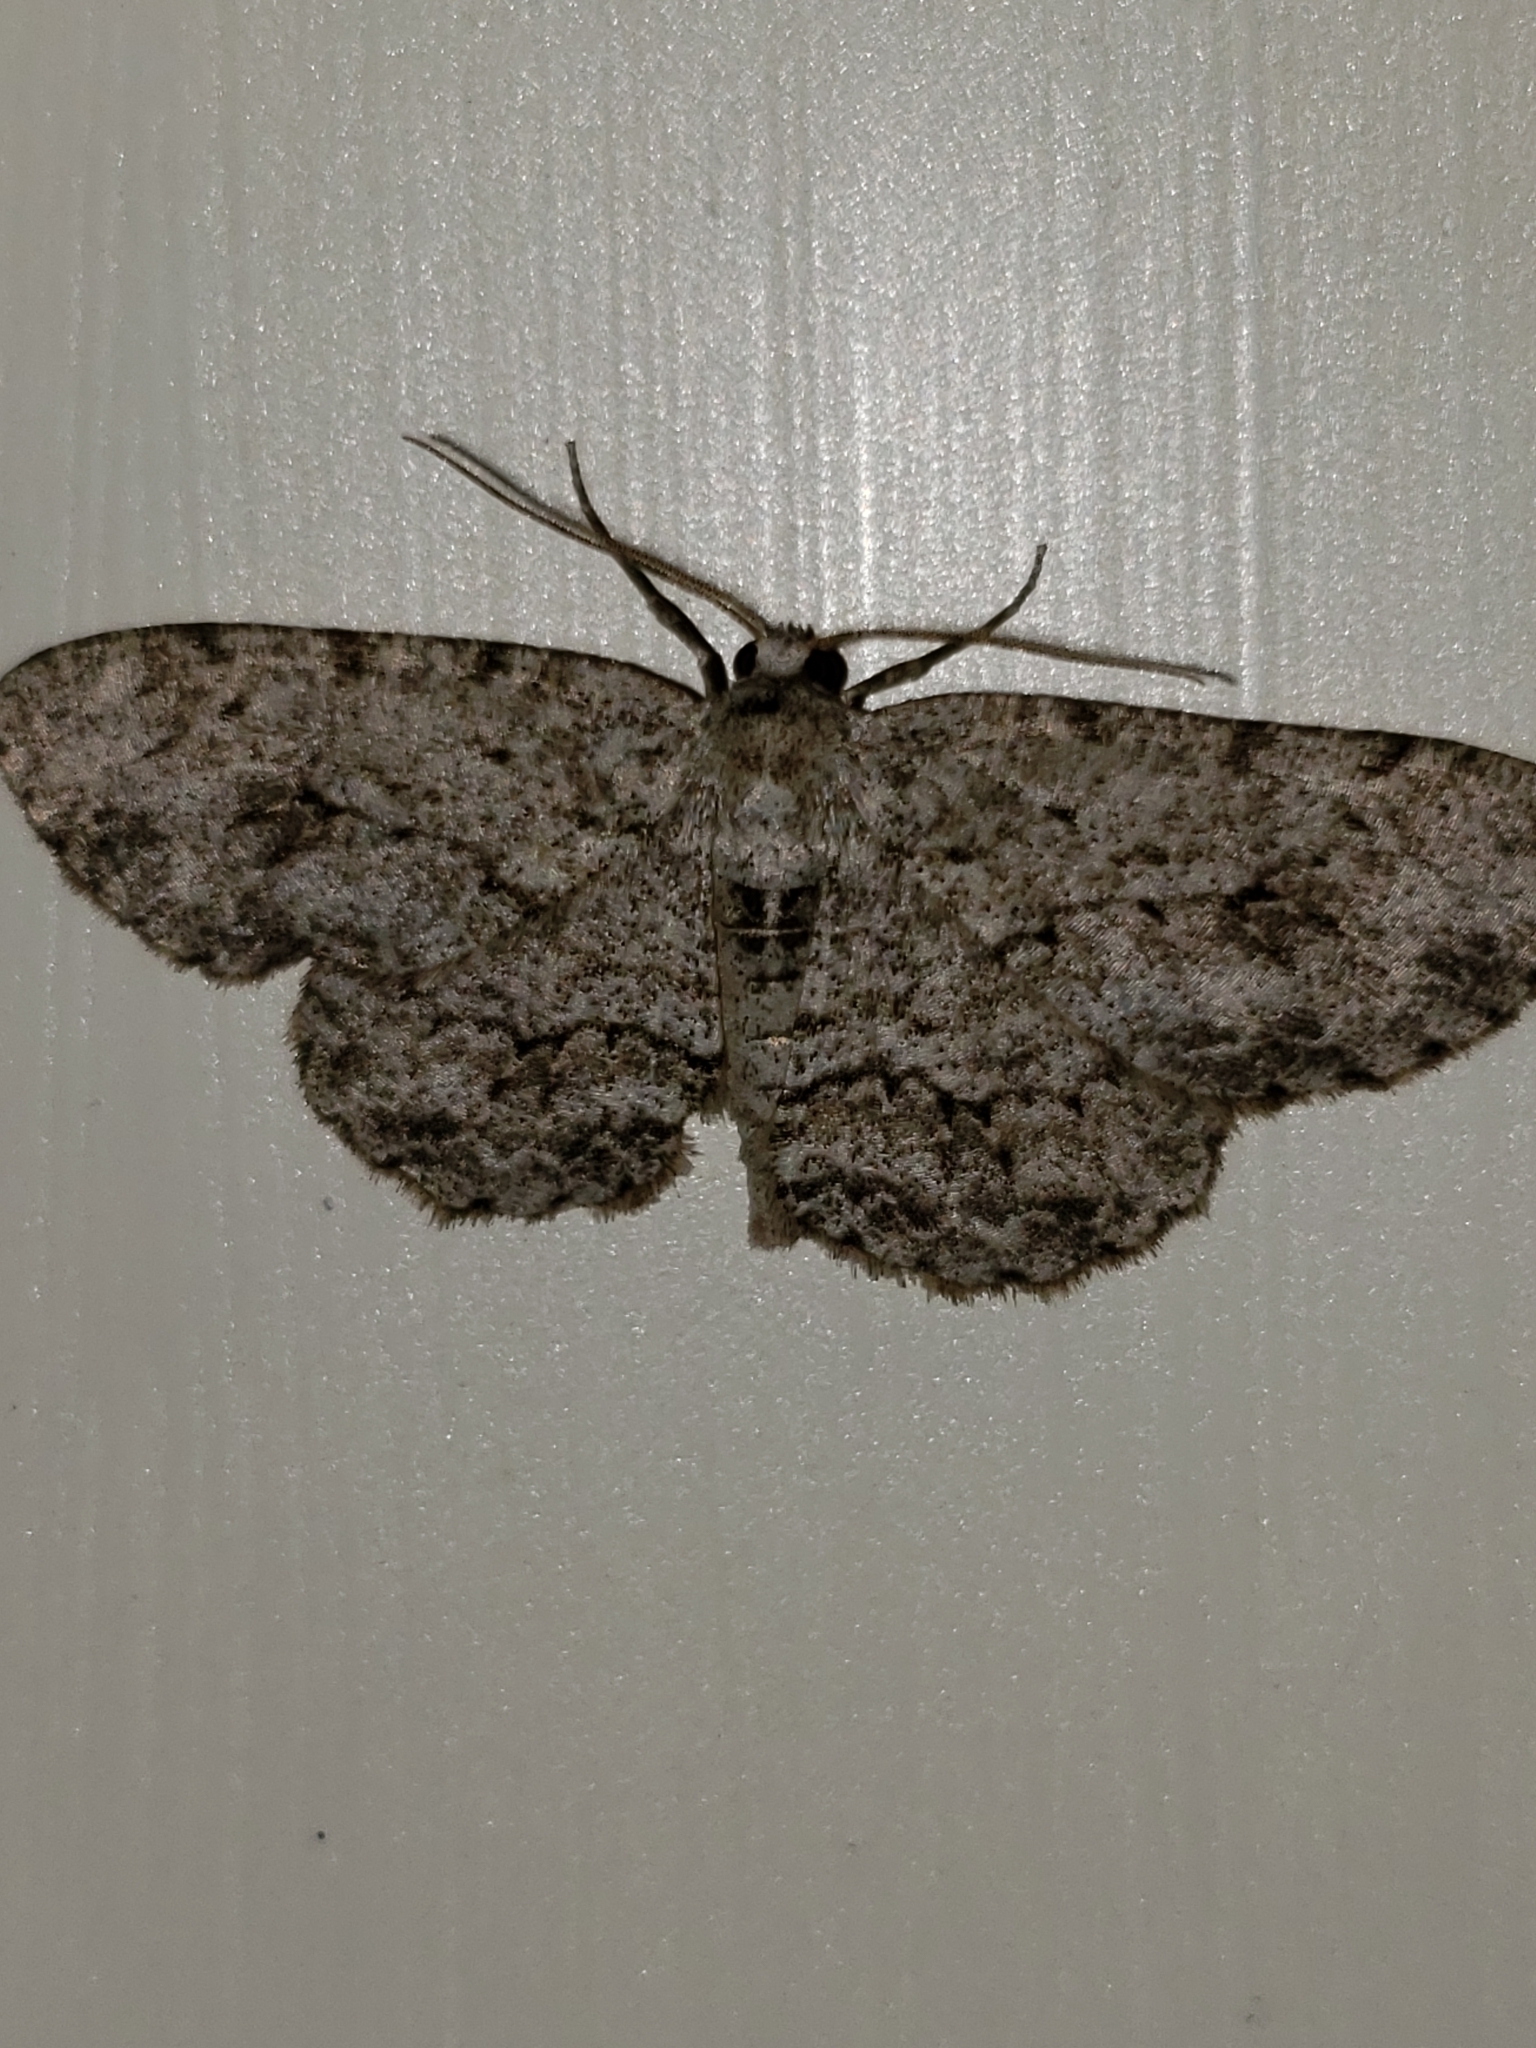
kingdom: Animalia
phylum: Arthropoda
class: Insecta
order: Lepidoptera
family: Geometridae
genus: Ectropis
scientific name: Ectropis crepuscularia
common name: Engrailed
